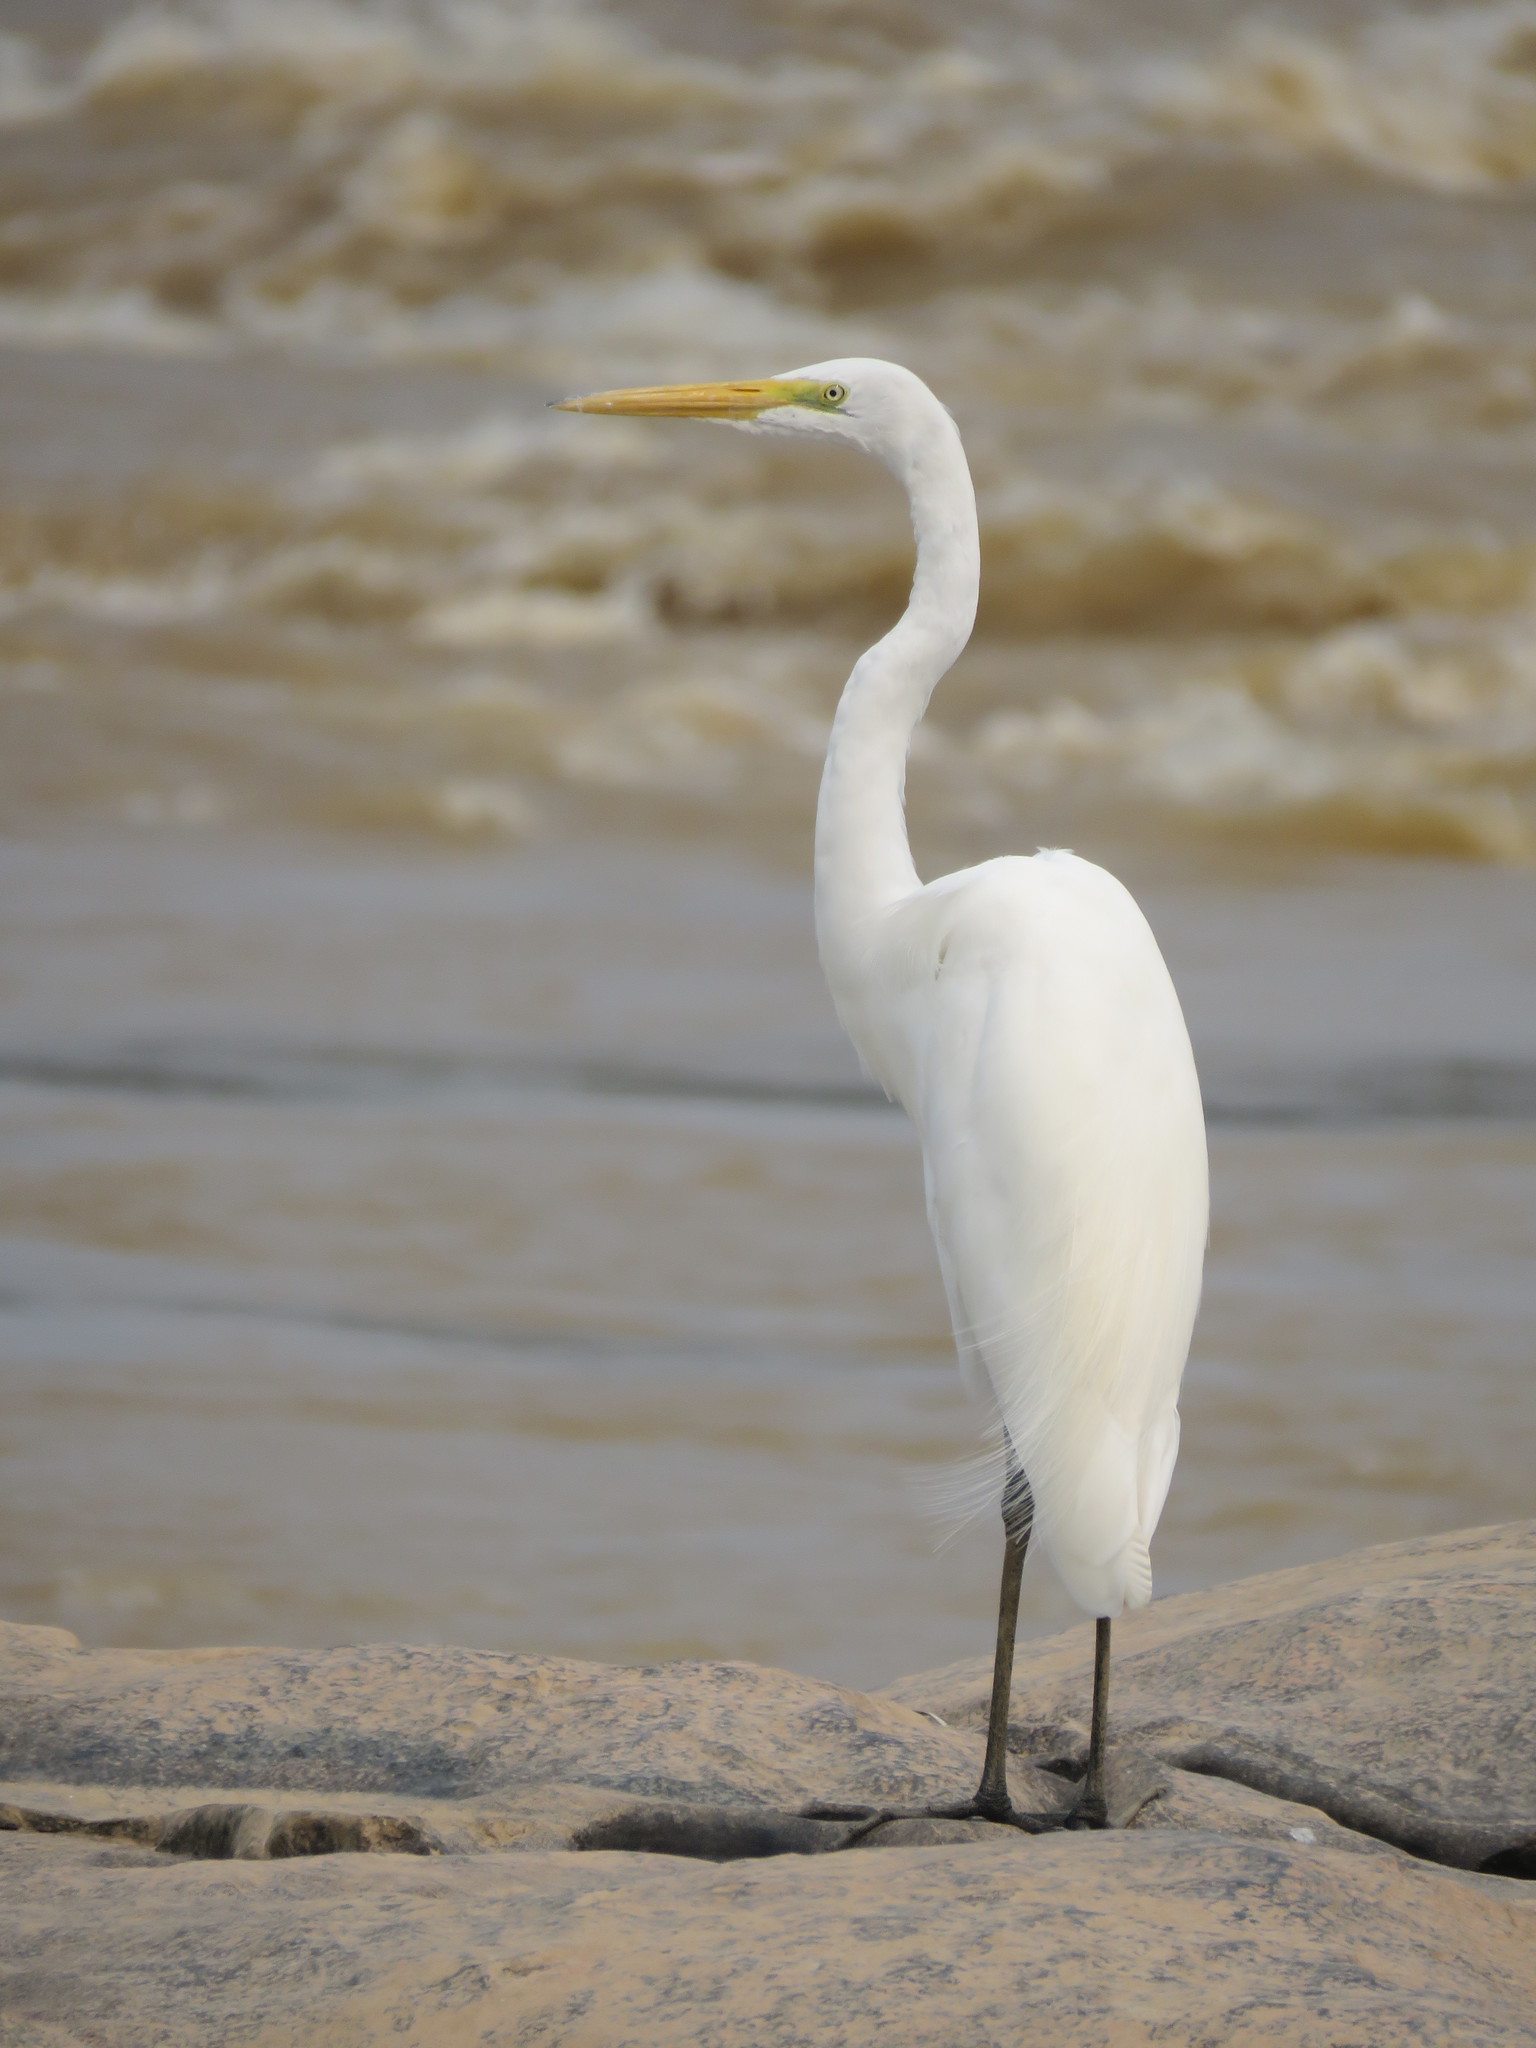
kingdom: Animalia
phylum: Chordata
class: Aves
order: Pelecaniformes
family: Ardeidae
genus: Ardea
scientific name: Ardea alba
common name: Great egret
